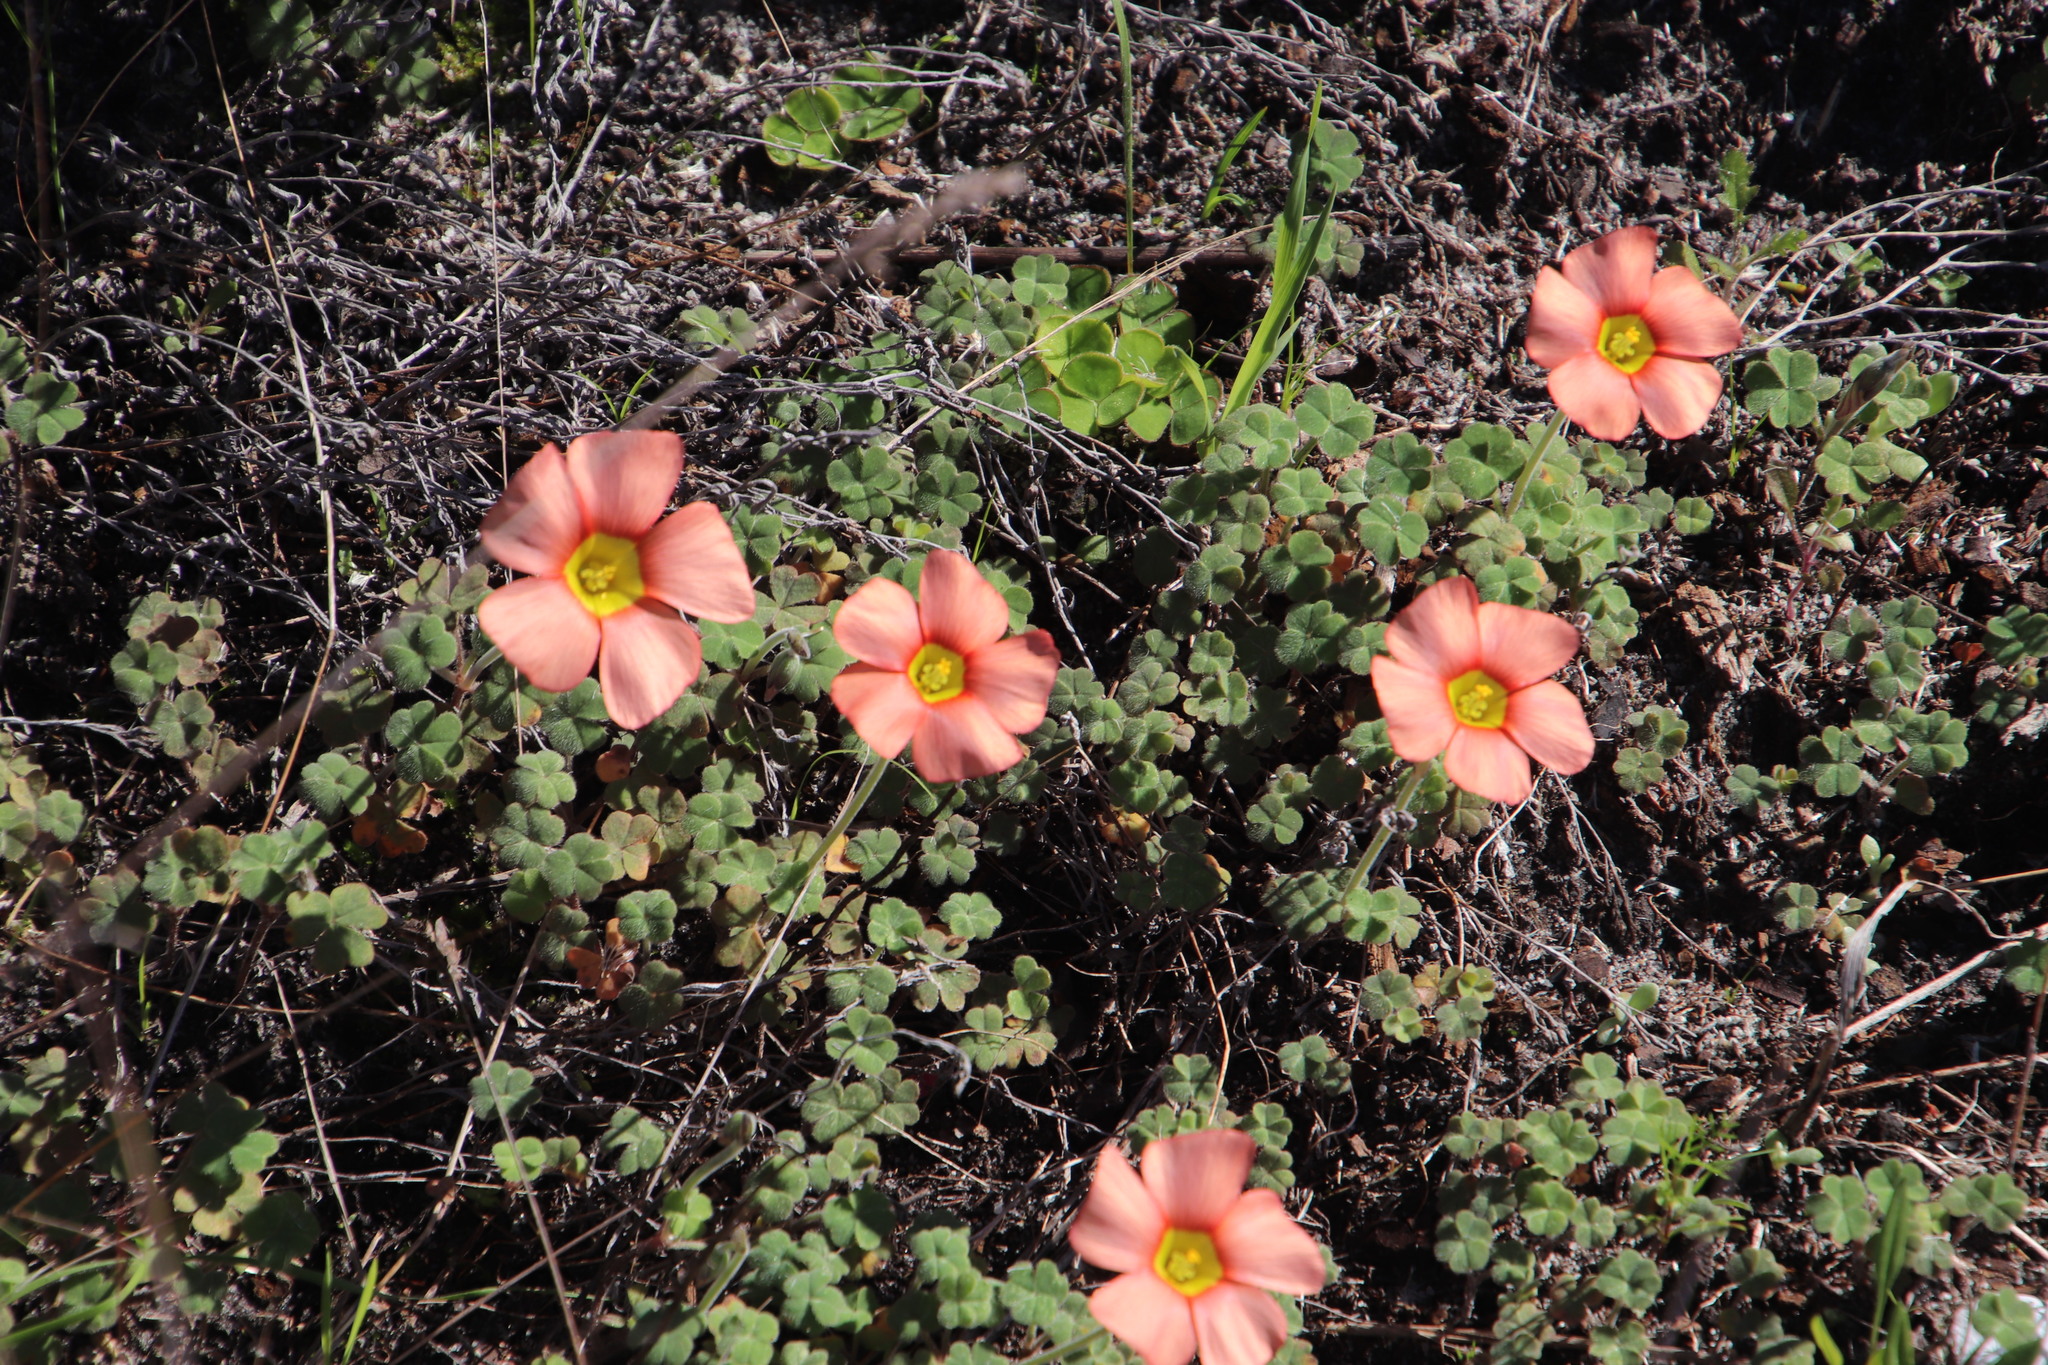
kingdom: Plantae
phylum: Tracheophyta
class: Magnoliopsida
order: Oxalidales
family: Oxalidaceae
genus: Oxalis
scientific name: Oxalis obtusa
